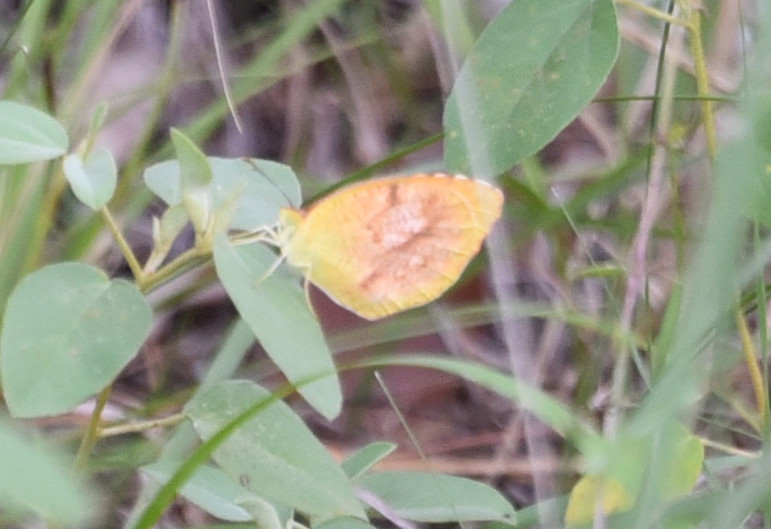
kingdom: Animalia
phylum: Arthropoda
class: Insecta
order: Lepidoptera
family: Pieridae
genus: Abaeis
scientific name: Abaeis nicippe
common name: Sleepy orange
